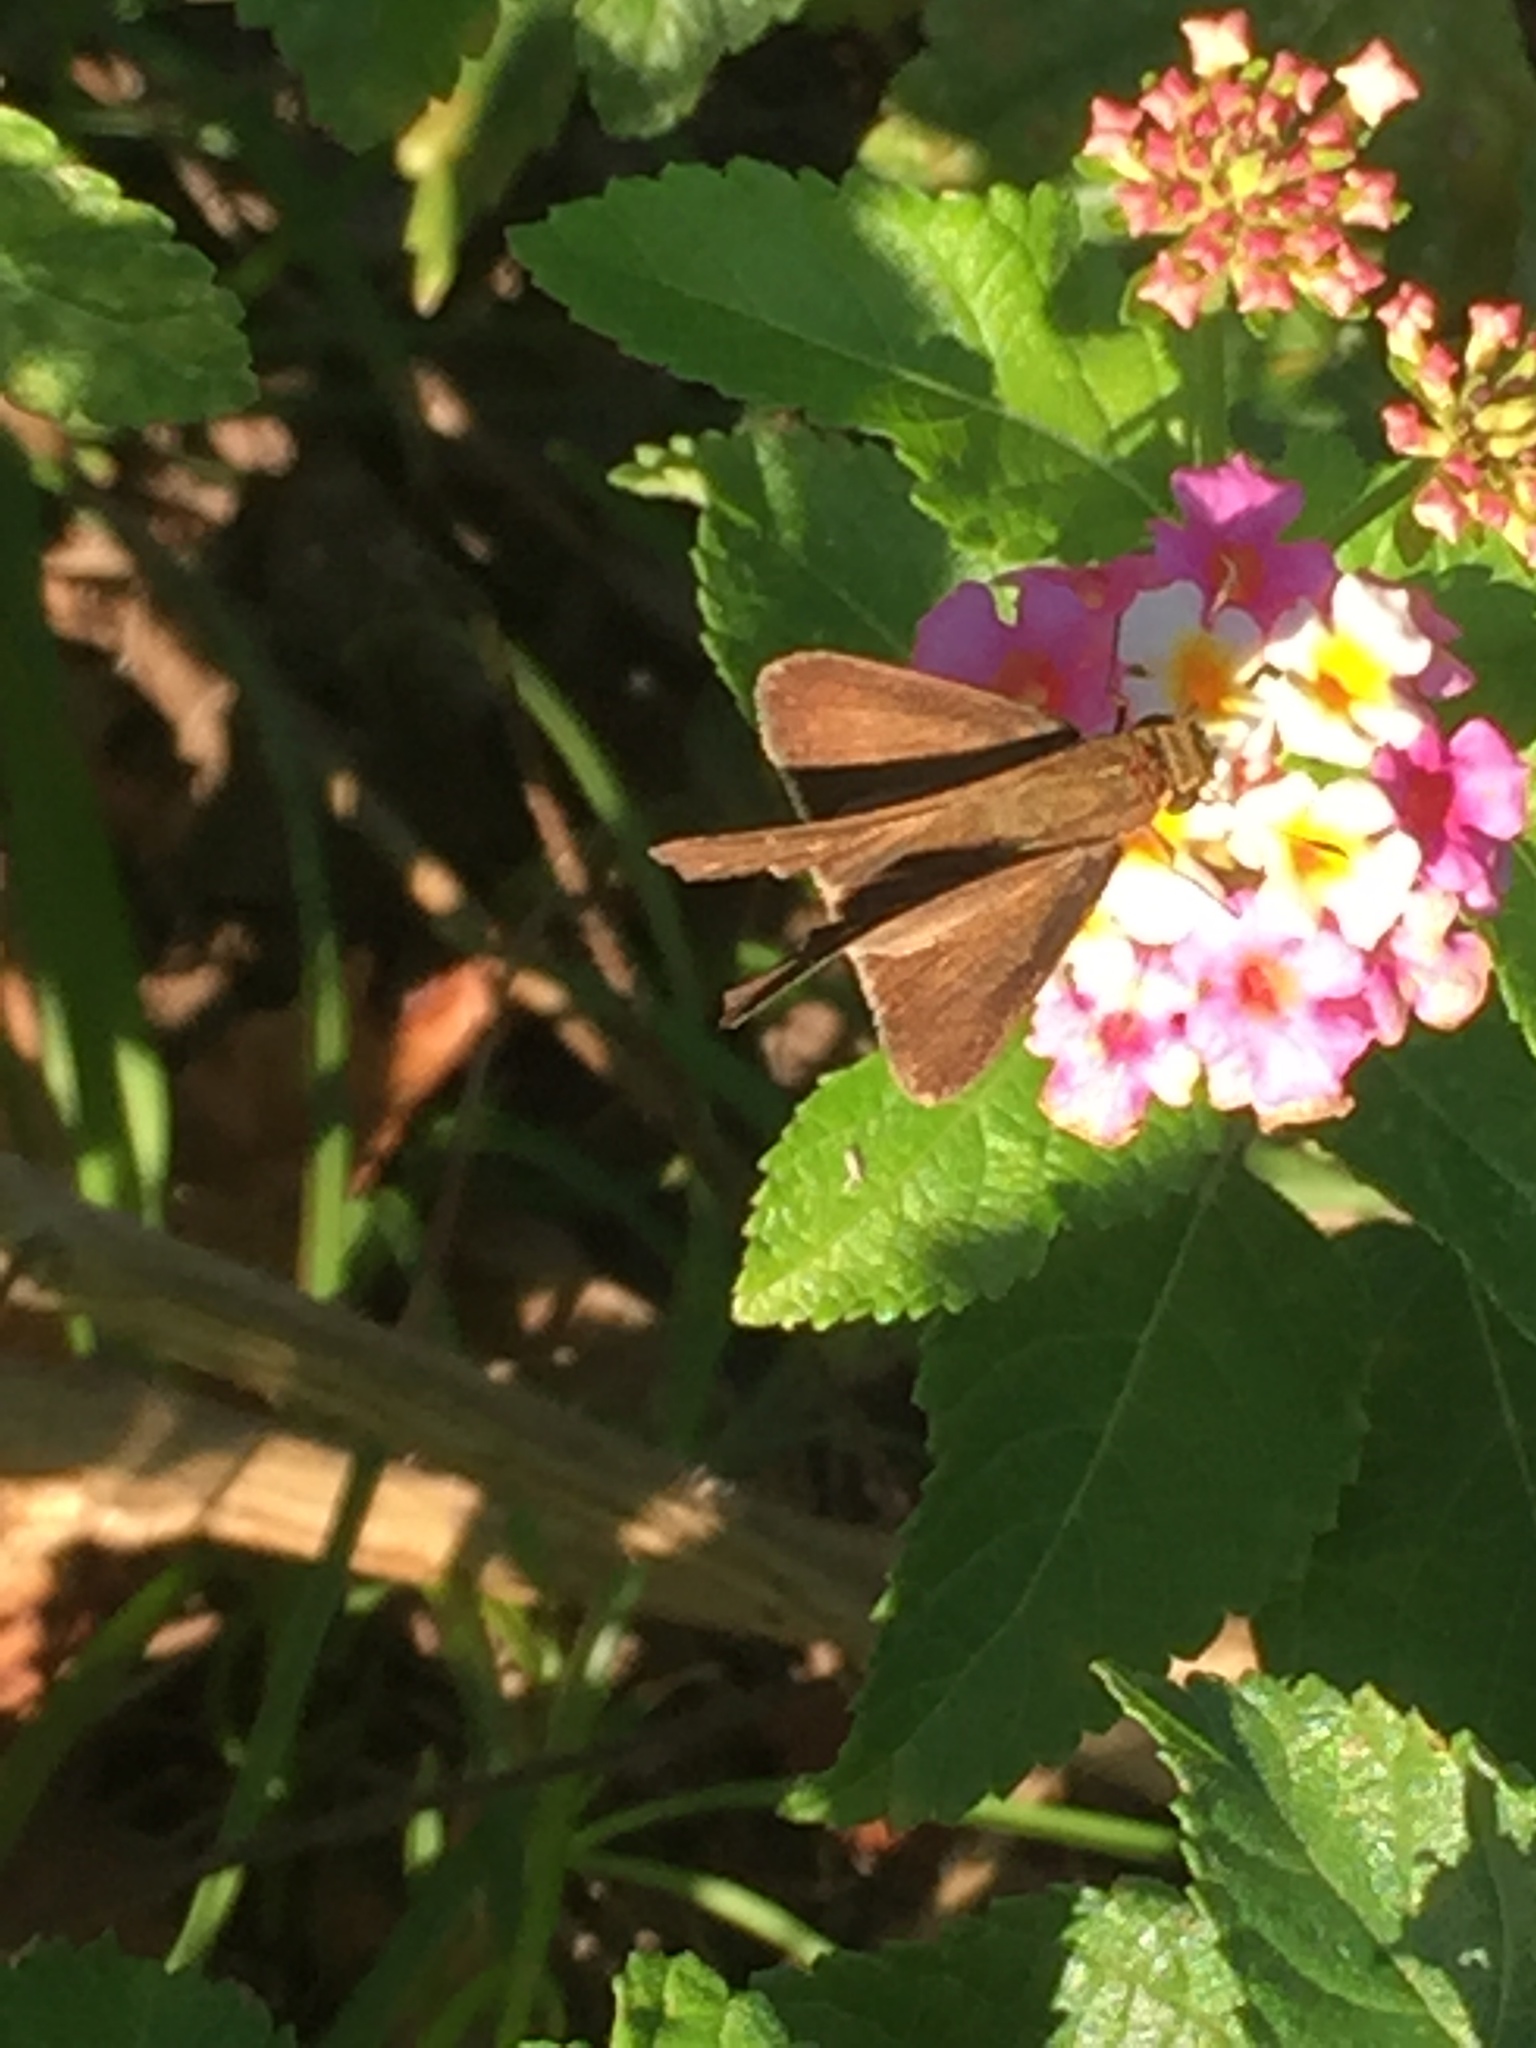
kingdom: Animalia
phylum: Arthropoda
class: Insecta
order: Lepidoptera
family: Hesperiidae
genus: Panoquina
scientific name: Panoquina ocola
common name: Ocola skipper
